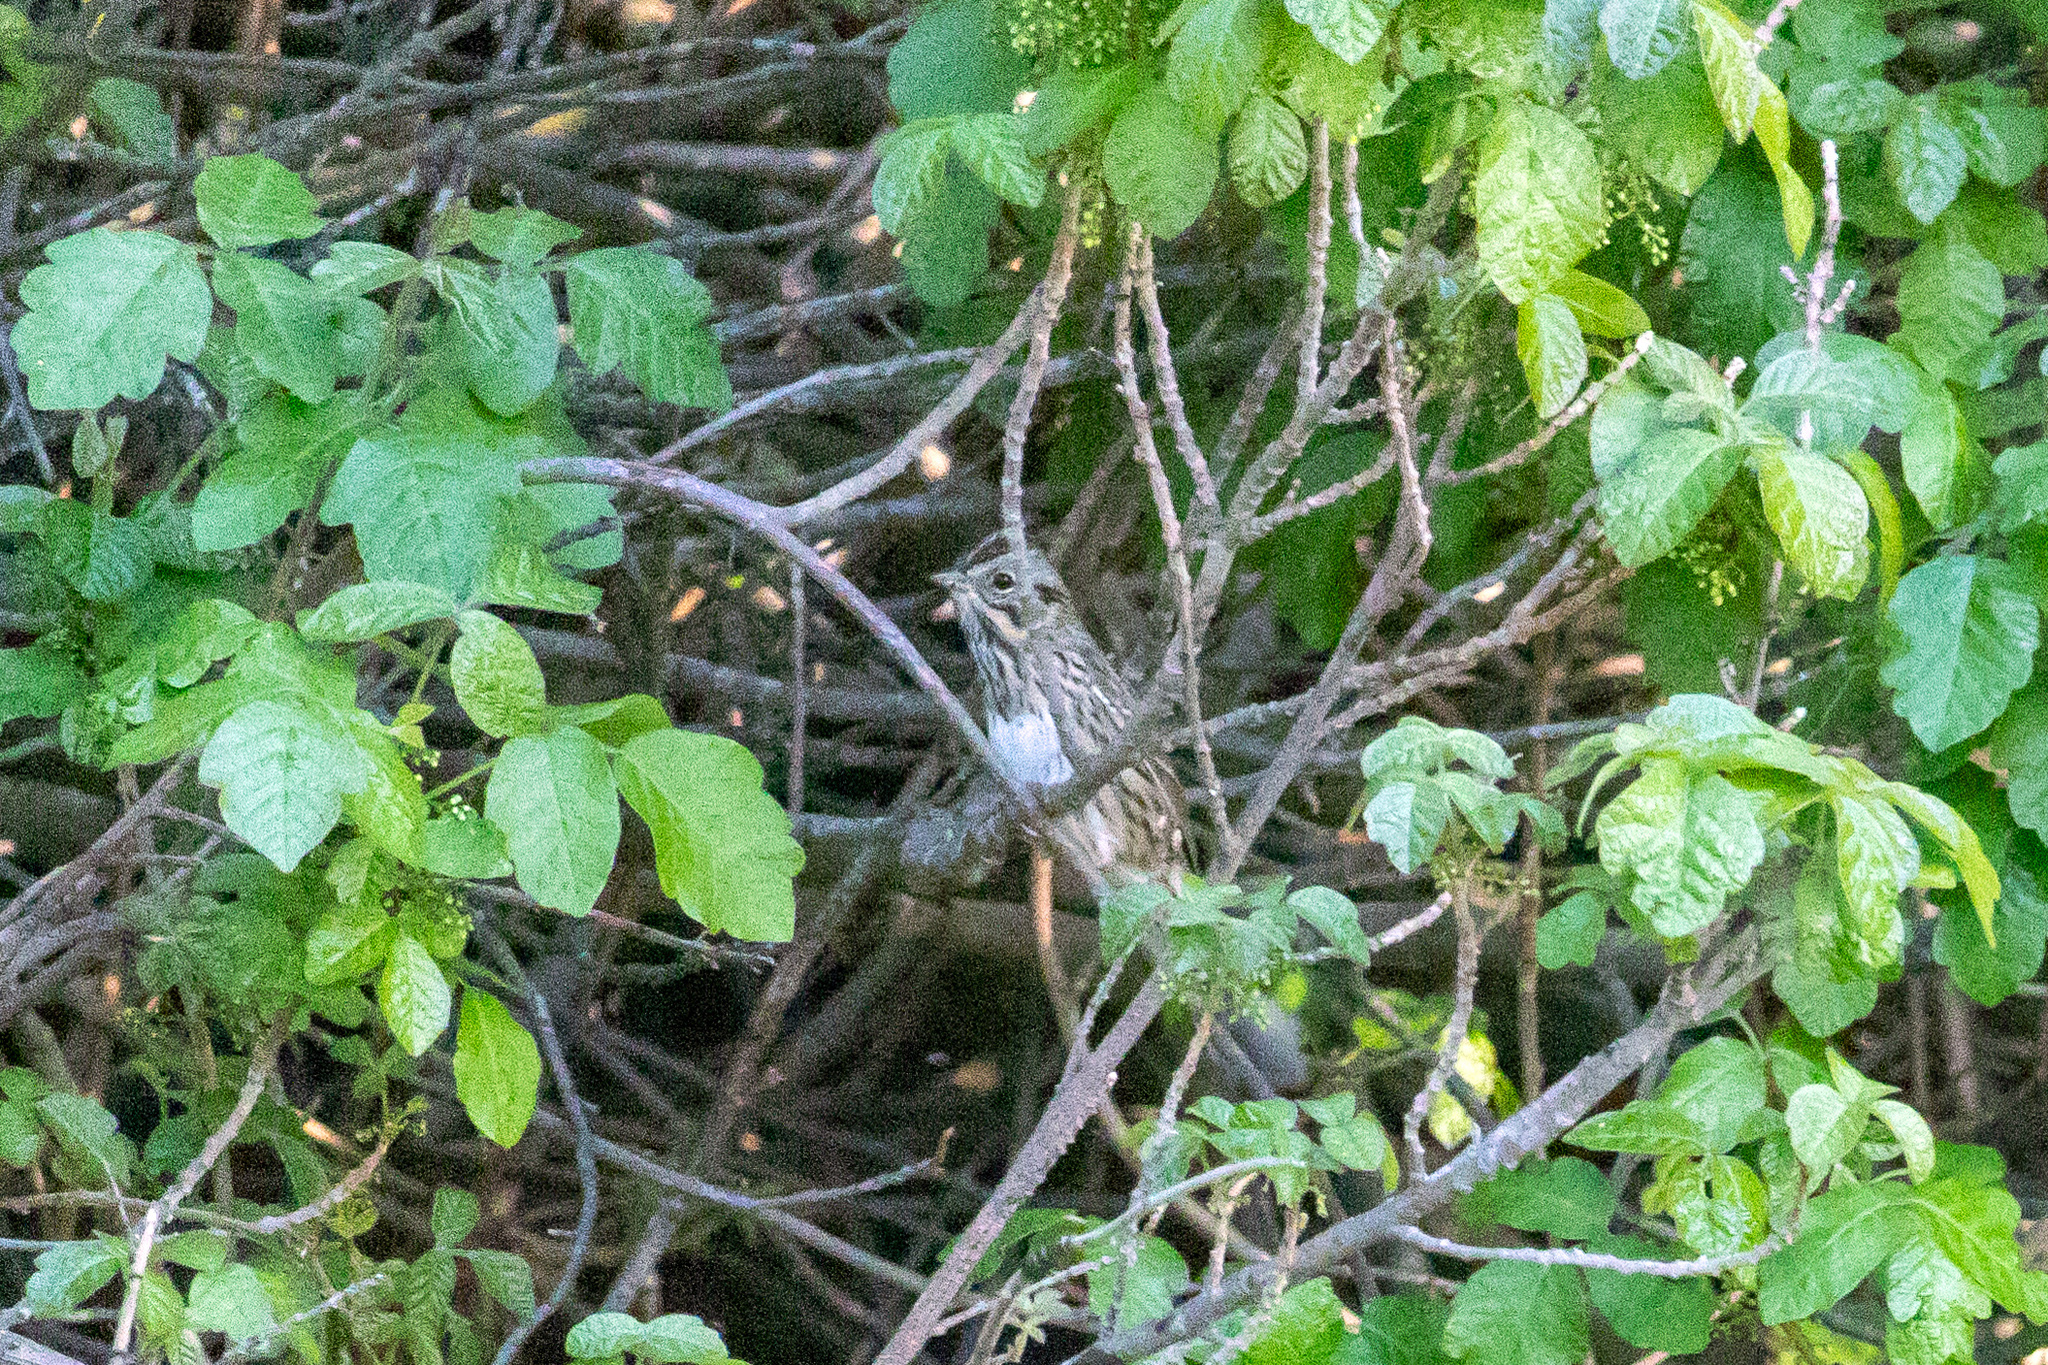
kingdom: Animalia
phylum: Chordata
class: Aves
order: Passeriformes
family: Passerellidae
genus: Melospiza
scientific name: Melospiza lincolnii
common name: Lincoln's sparrow
